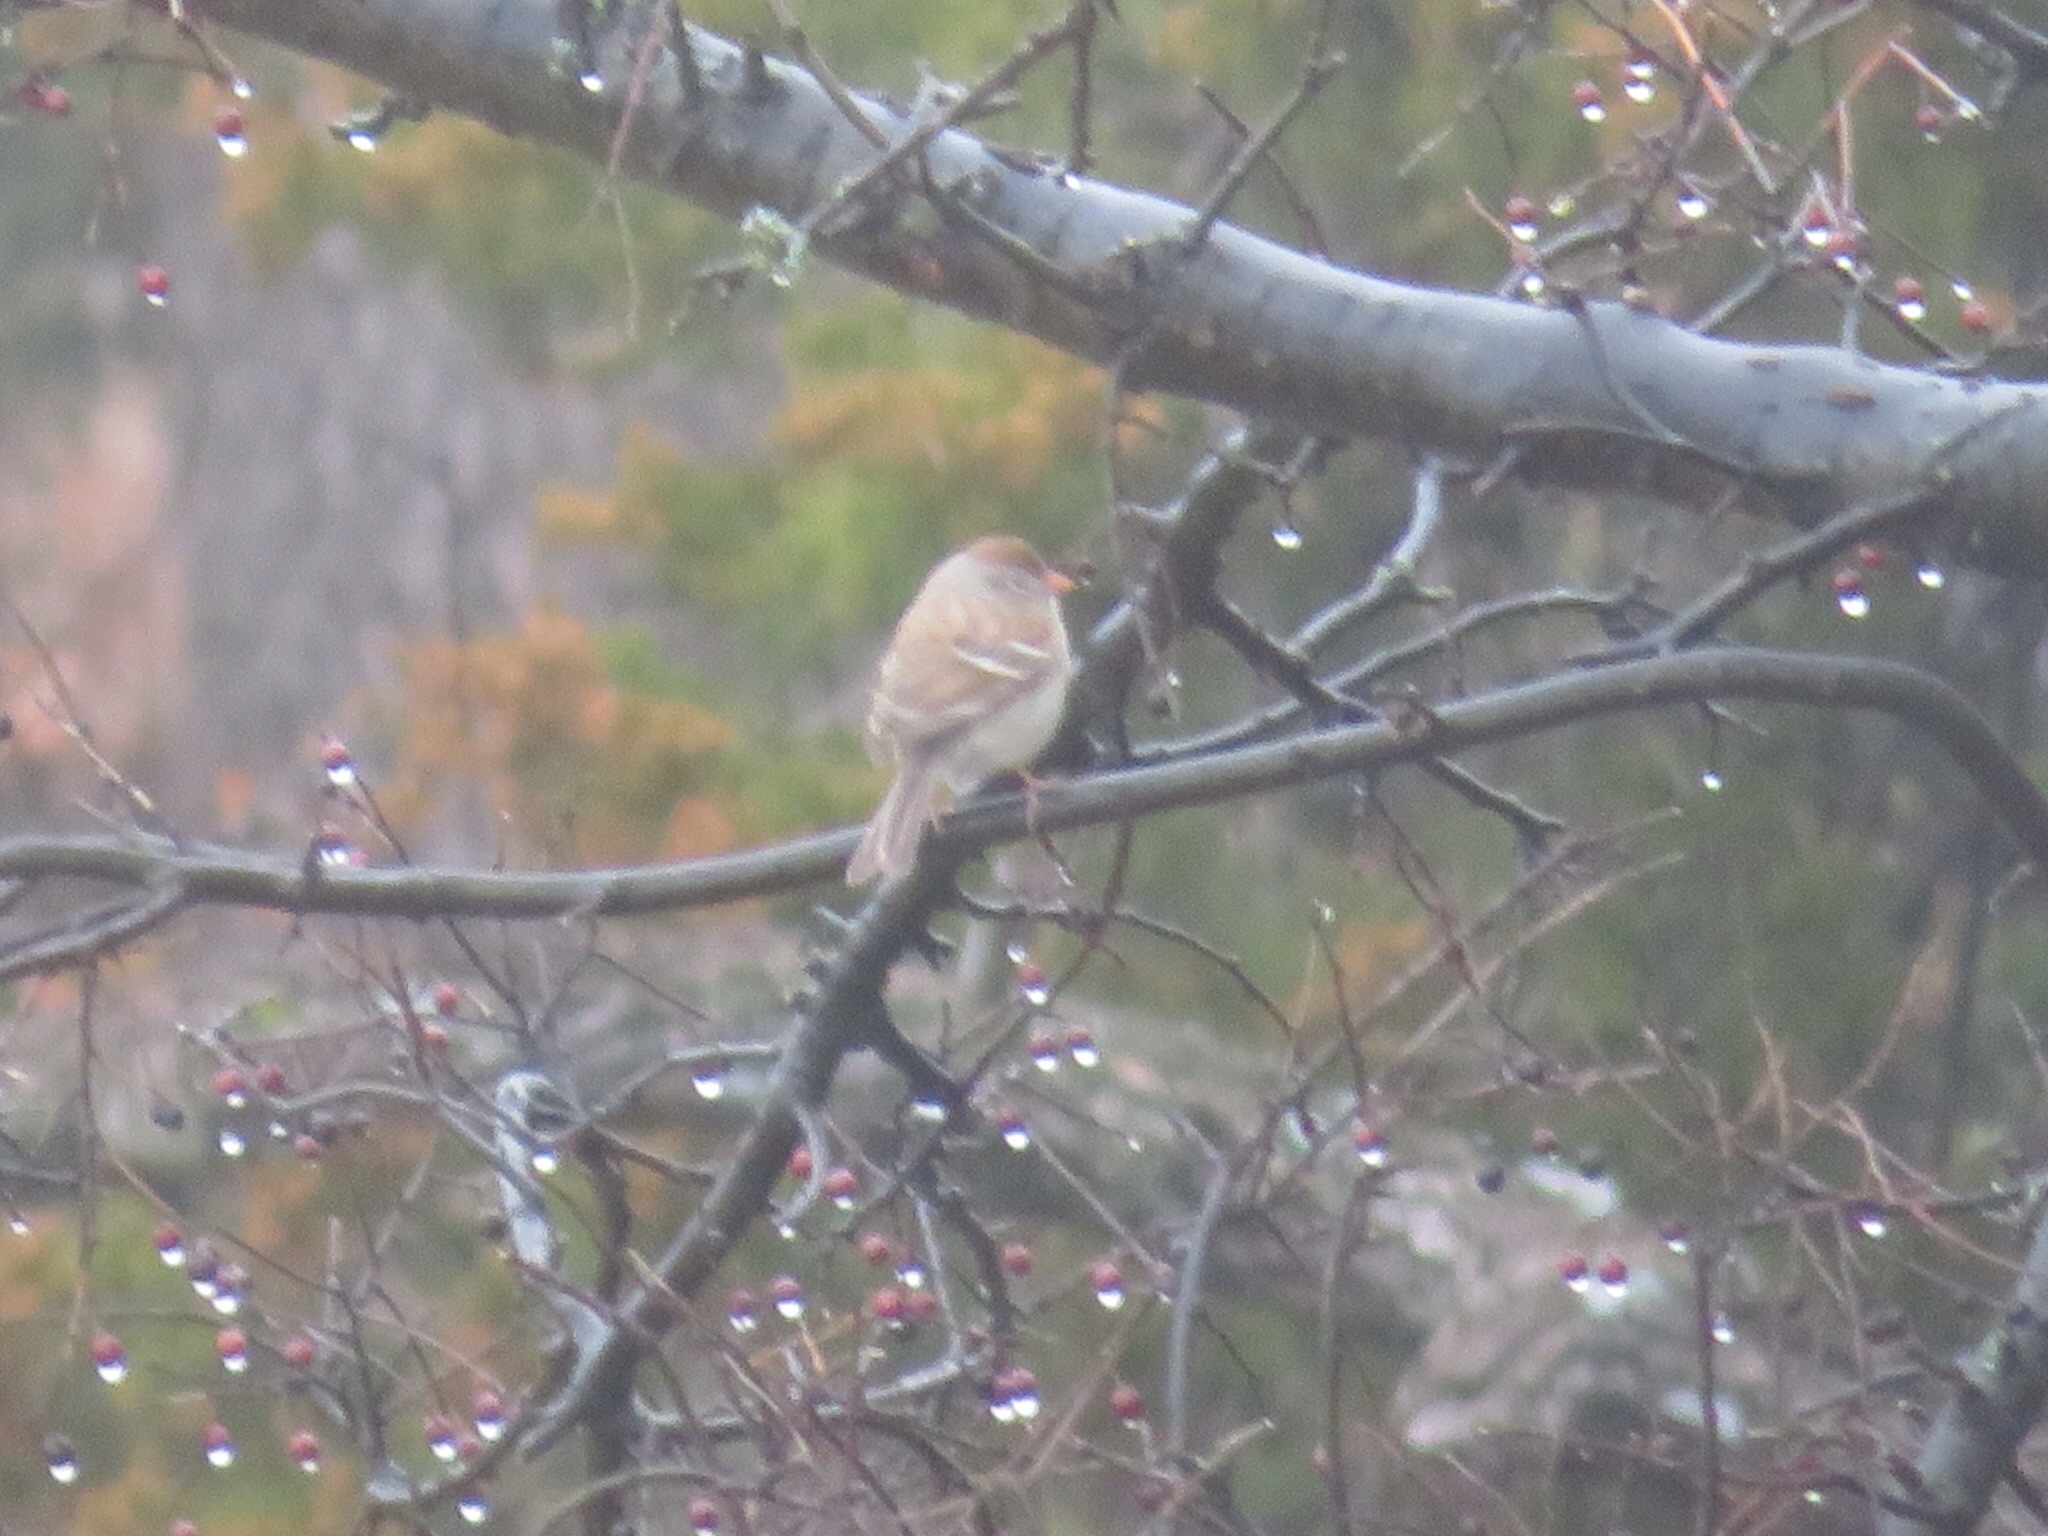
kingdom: Animalia
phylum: Chordata
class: Aves
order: Passeriformes
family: Passerellidae
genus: Spizella
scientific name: Spizella pusilla
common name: Field sparrow
